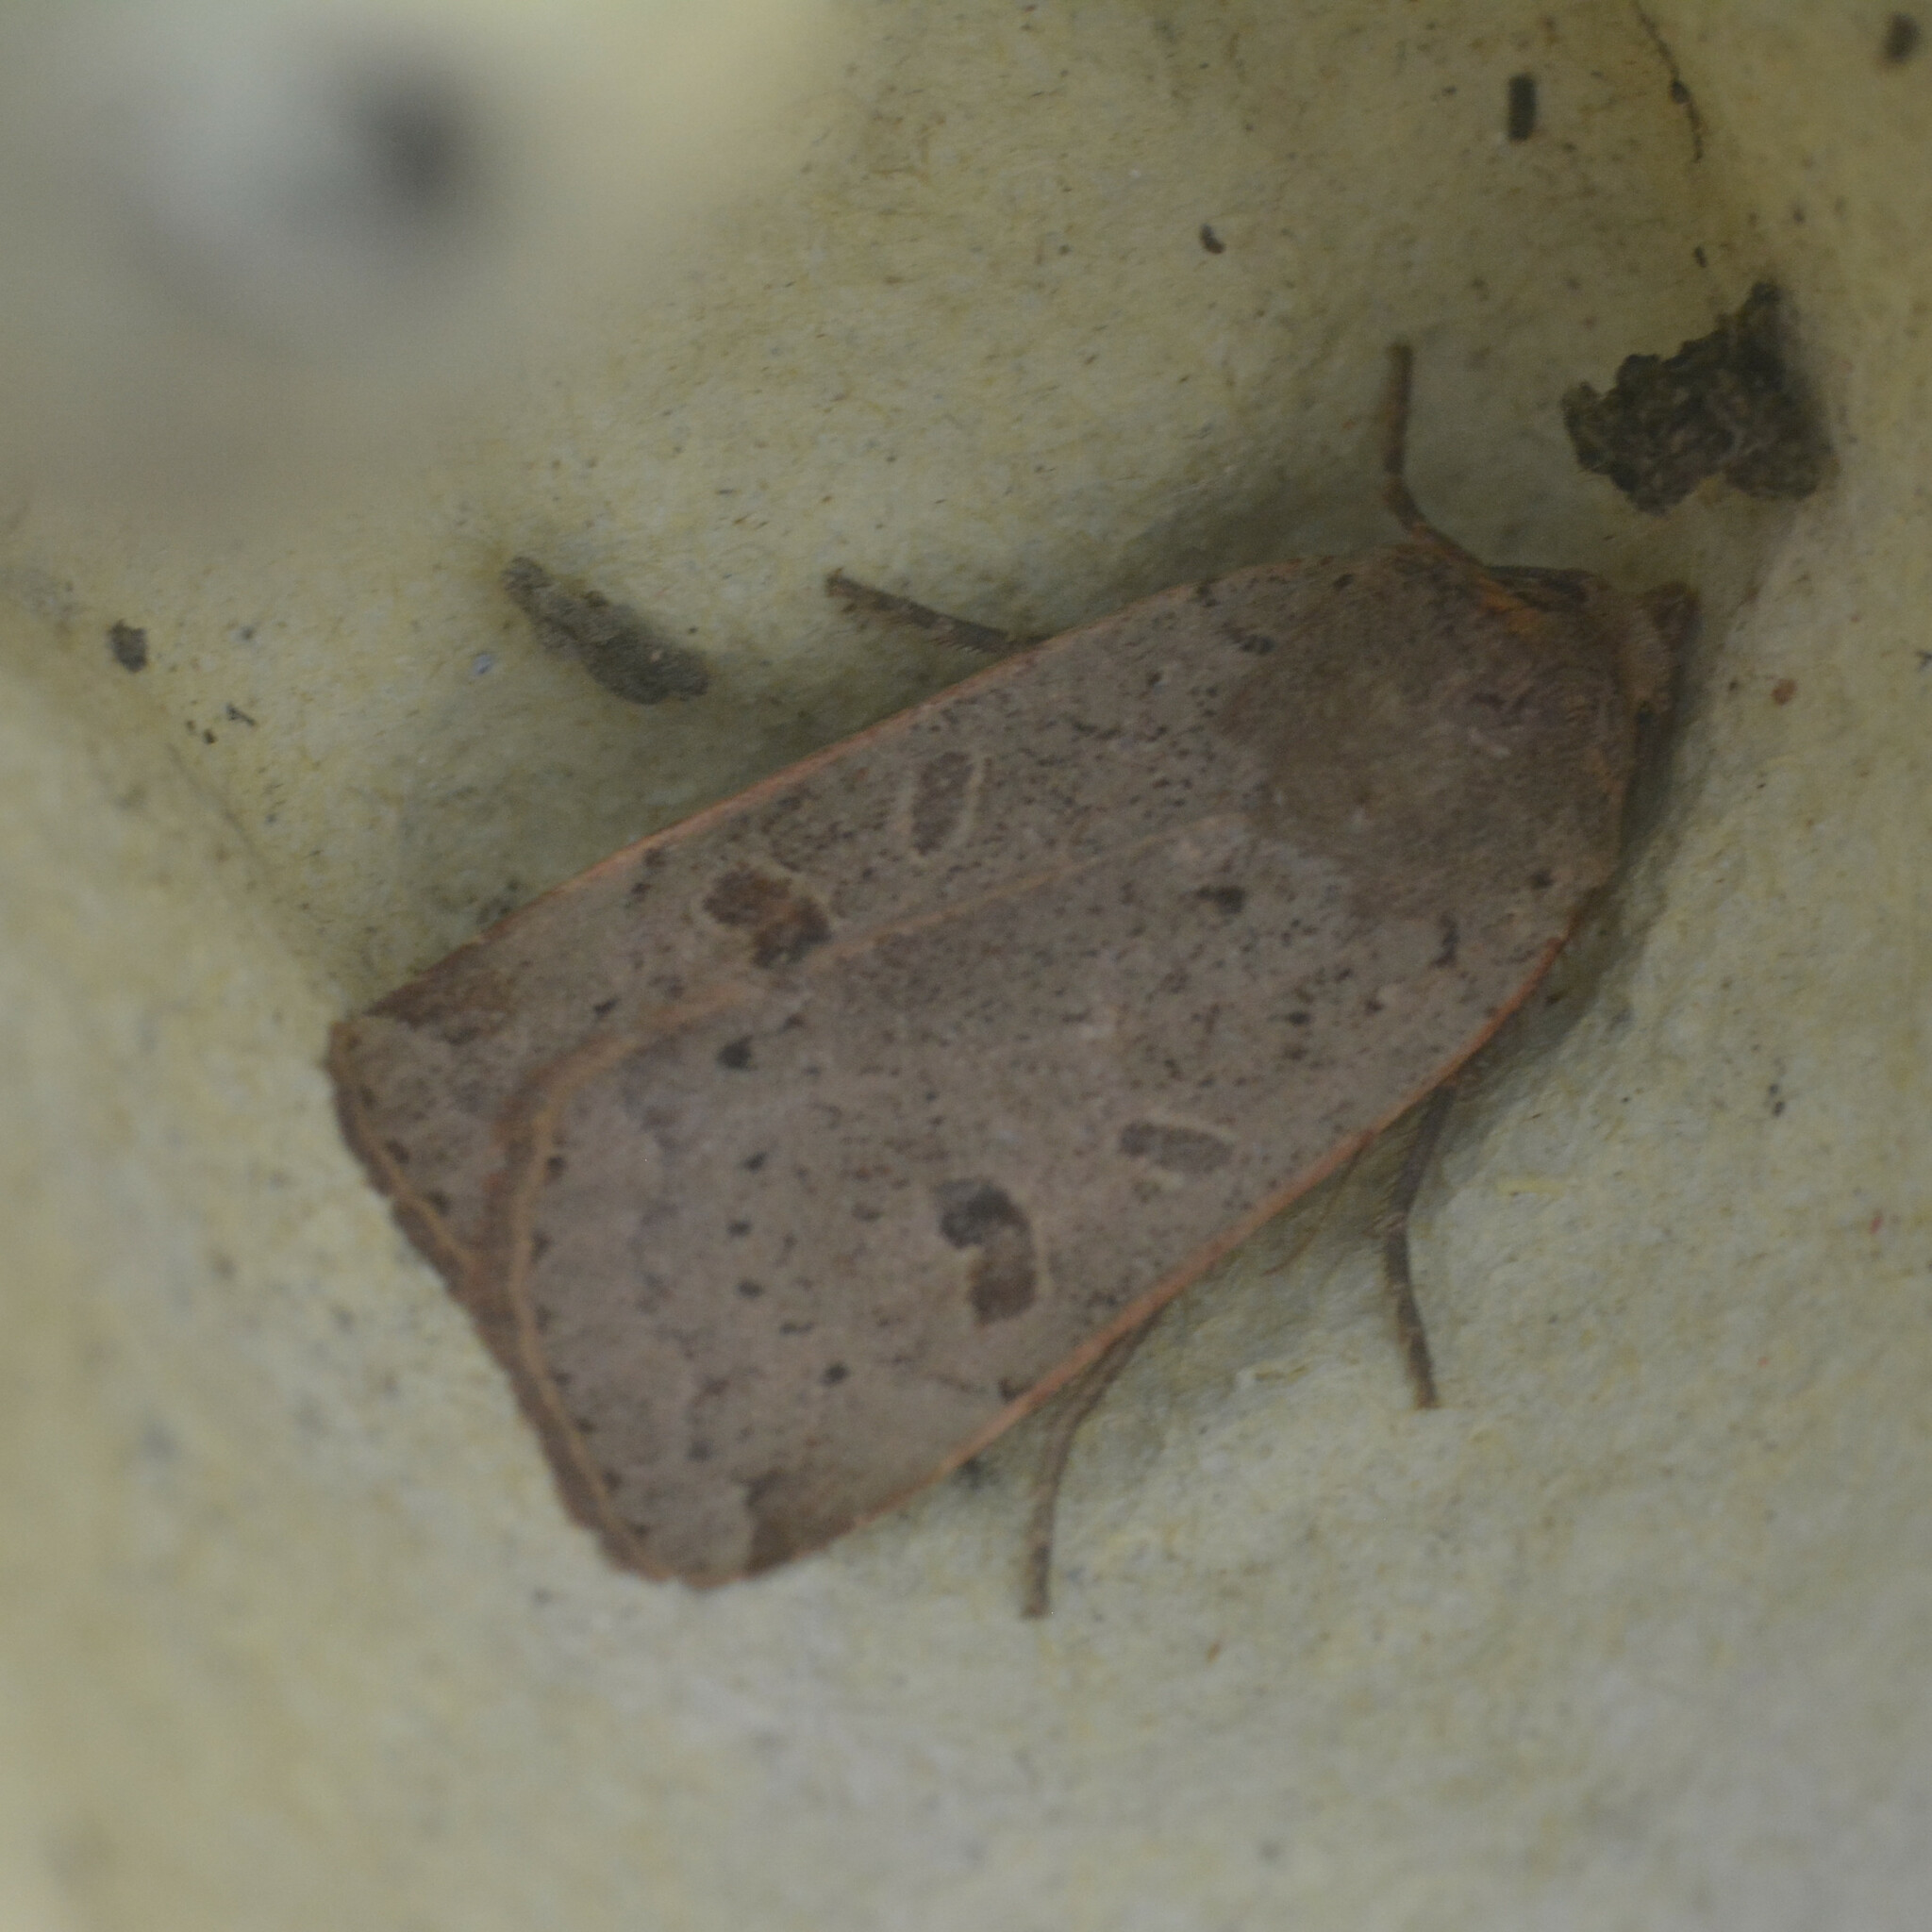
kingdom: Animalia
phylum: Arthropoda
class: Insecta
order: Lepidoptera
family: Noctuidae
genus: Noctua
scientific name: Noctua comes
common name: Lesser yellow underwing
